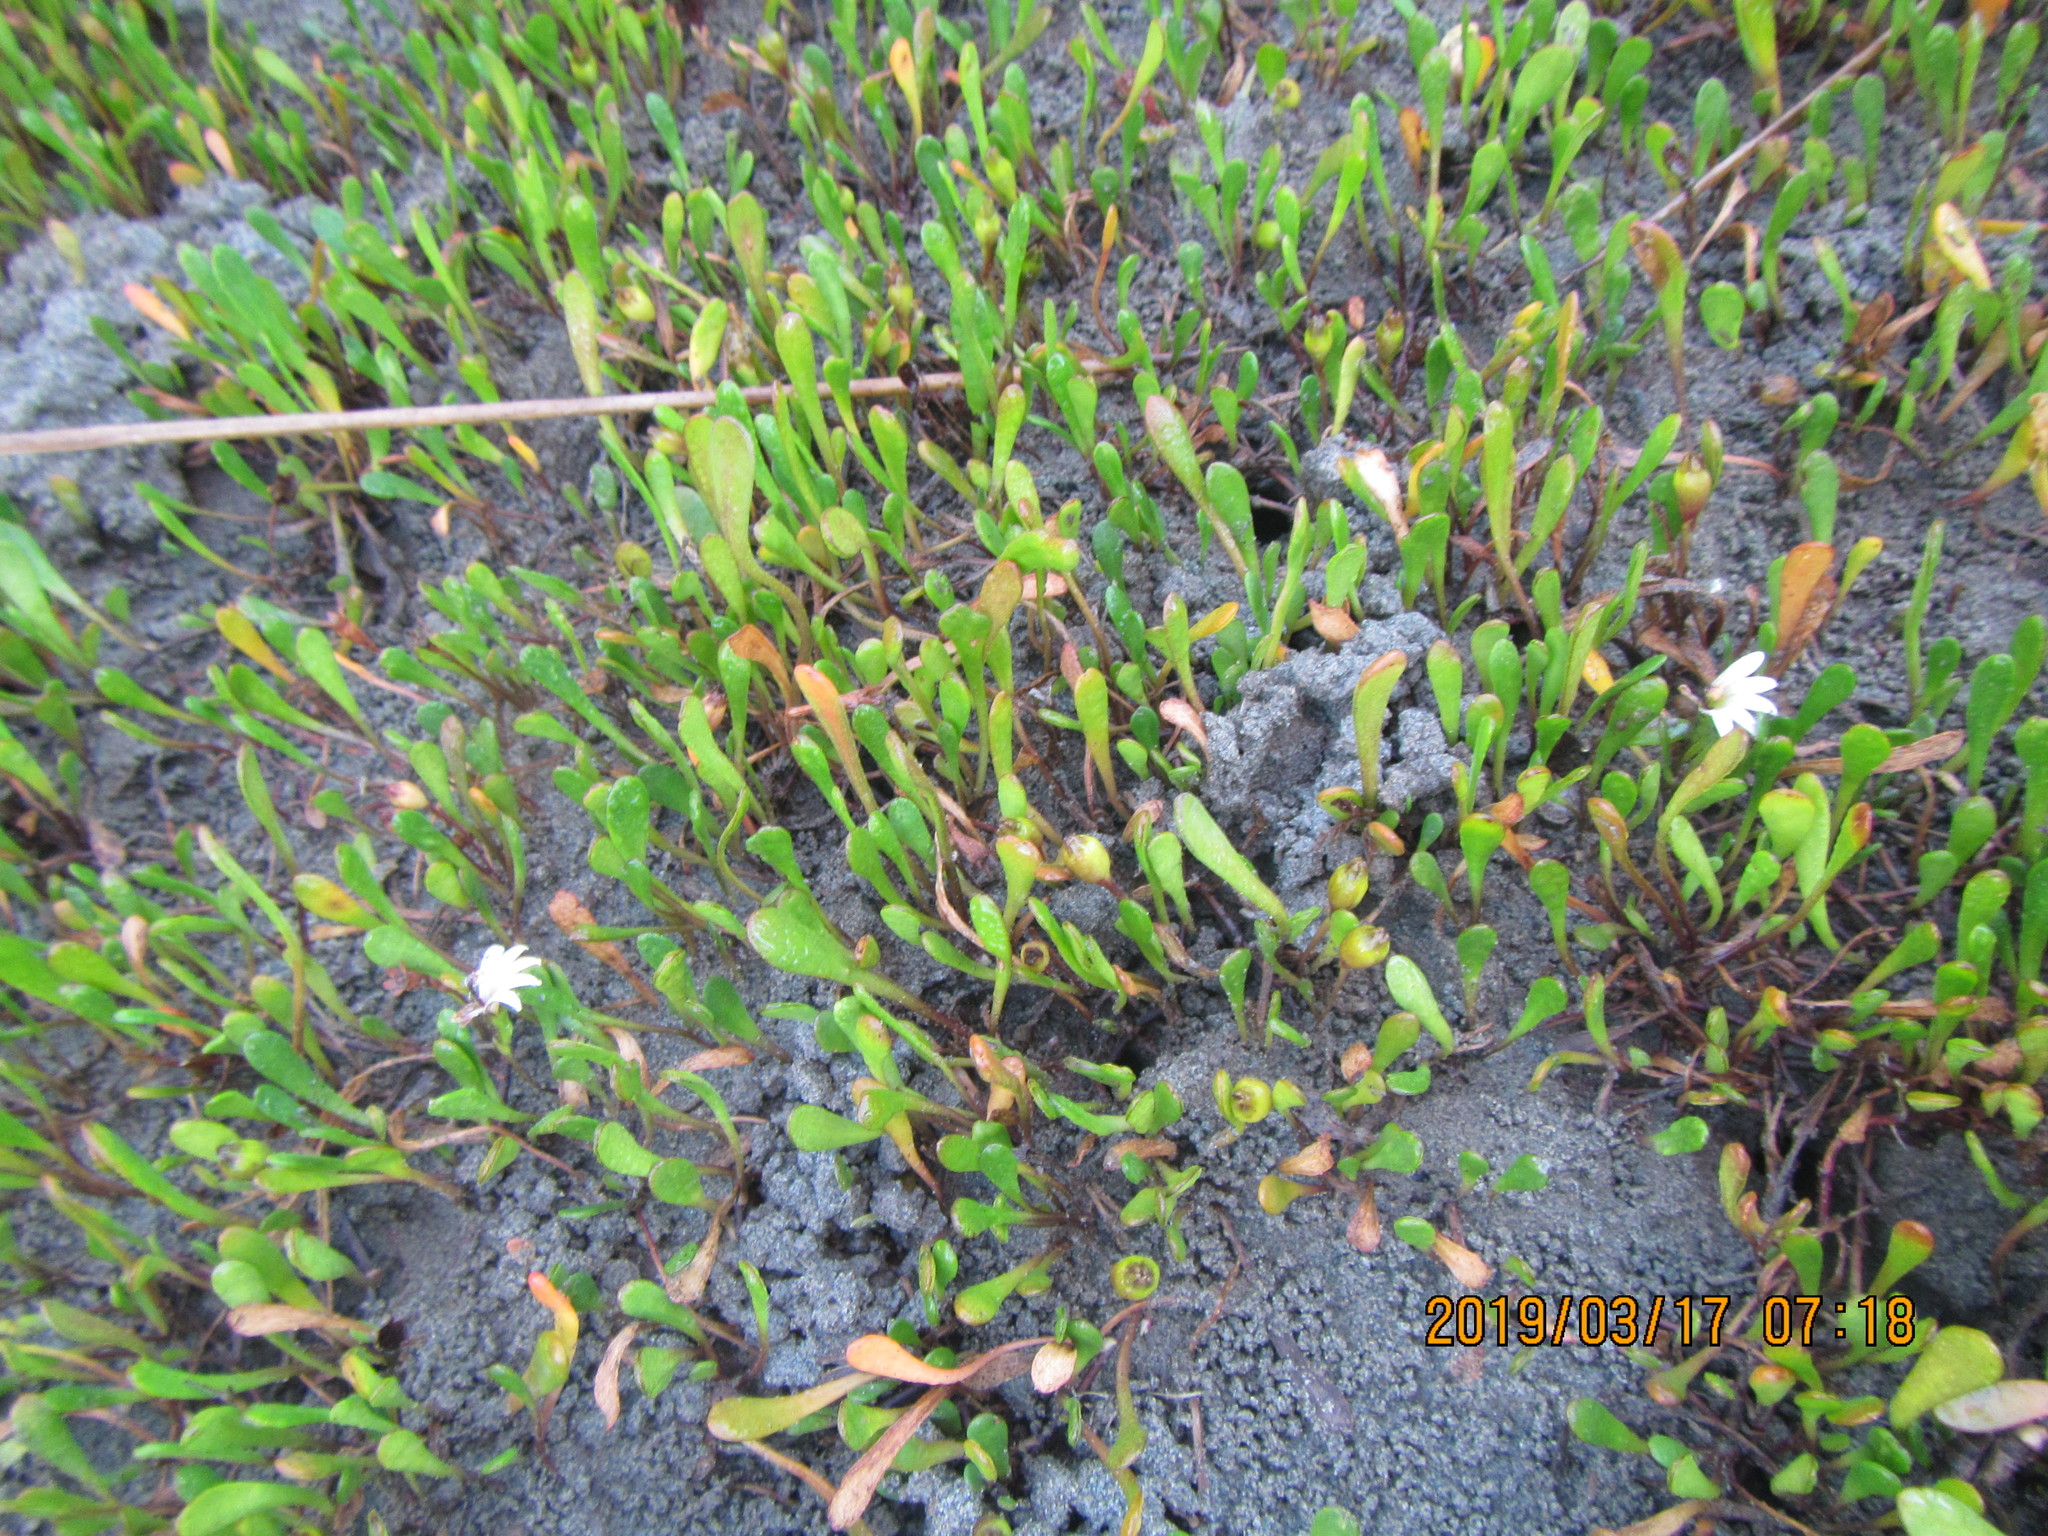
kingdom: Plantae
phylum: Tracheophyta
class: Magnoliopsida
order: Asterales
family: Goodeniaceae
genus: Goodenia
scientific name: Goodenia radicans
